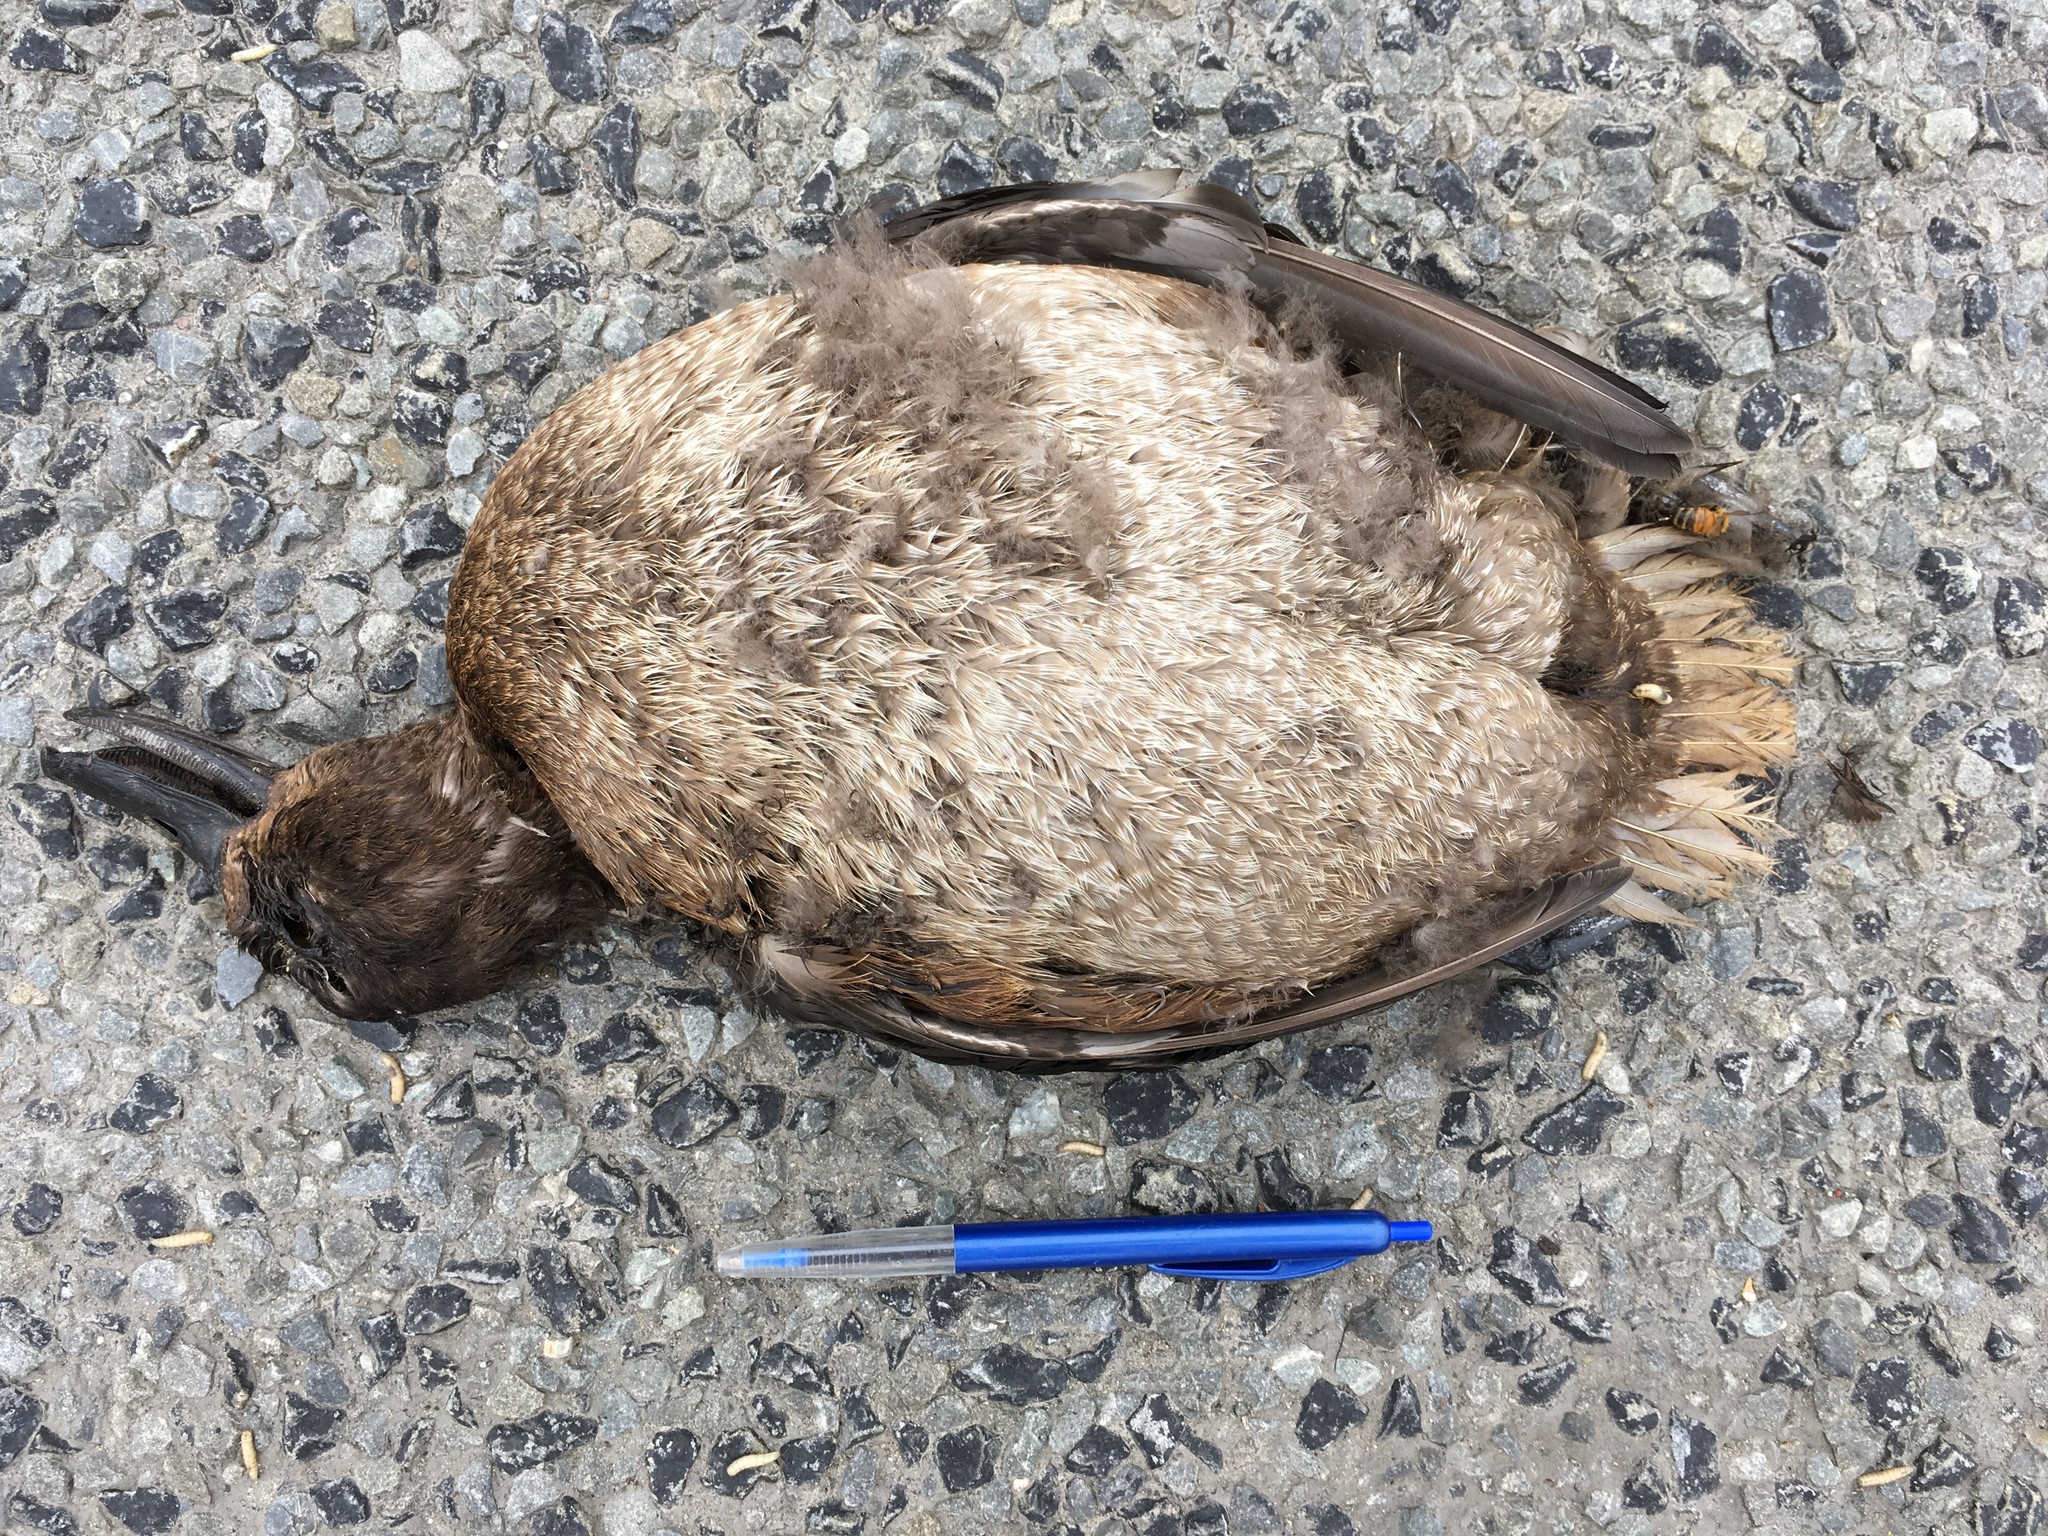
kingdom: Animalia
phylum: Chordata
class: Aves
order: Anseriformes
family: Anatidae
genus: Aythya
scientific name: Aythya novaeseelandiae
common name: New zealand scaup
